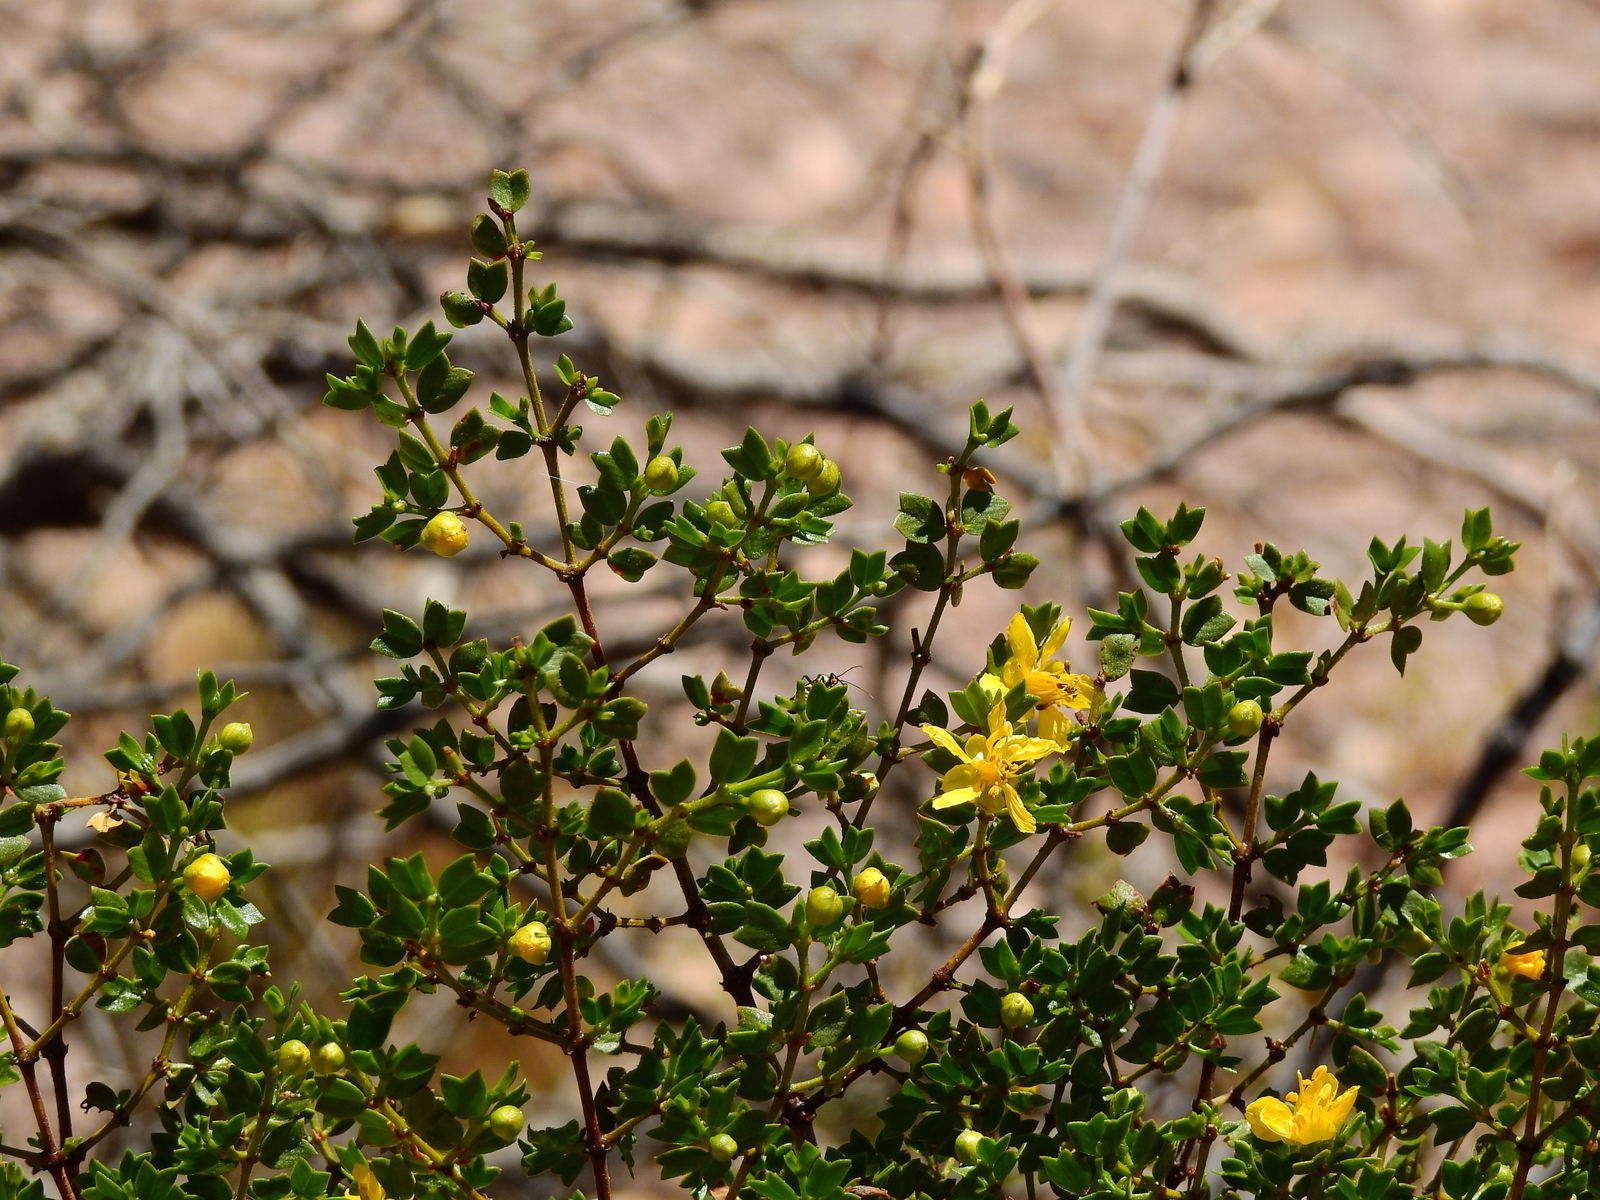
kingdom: Plantae
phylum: Tracheophyta
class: Magnoliopsida
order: Zygophyllales
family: Zygophyllaceae
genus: Larrea
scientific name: Larrea cuneifolia
